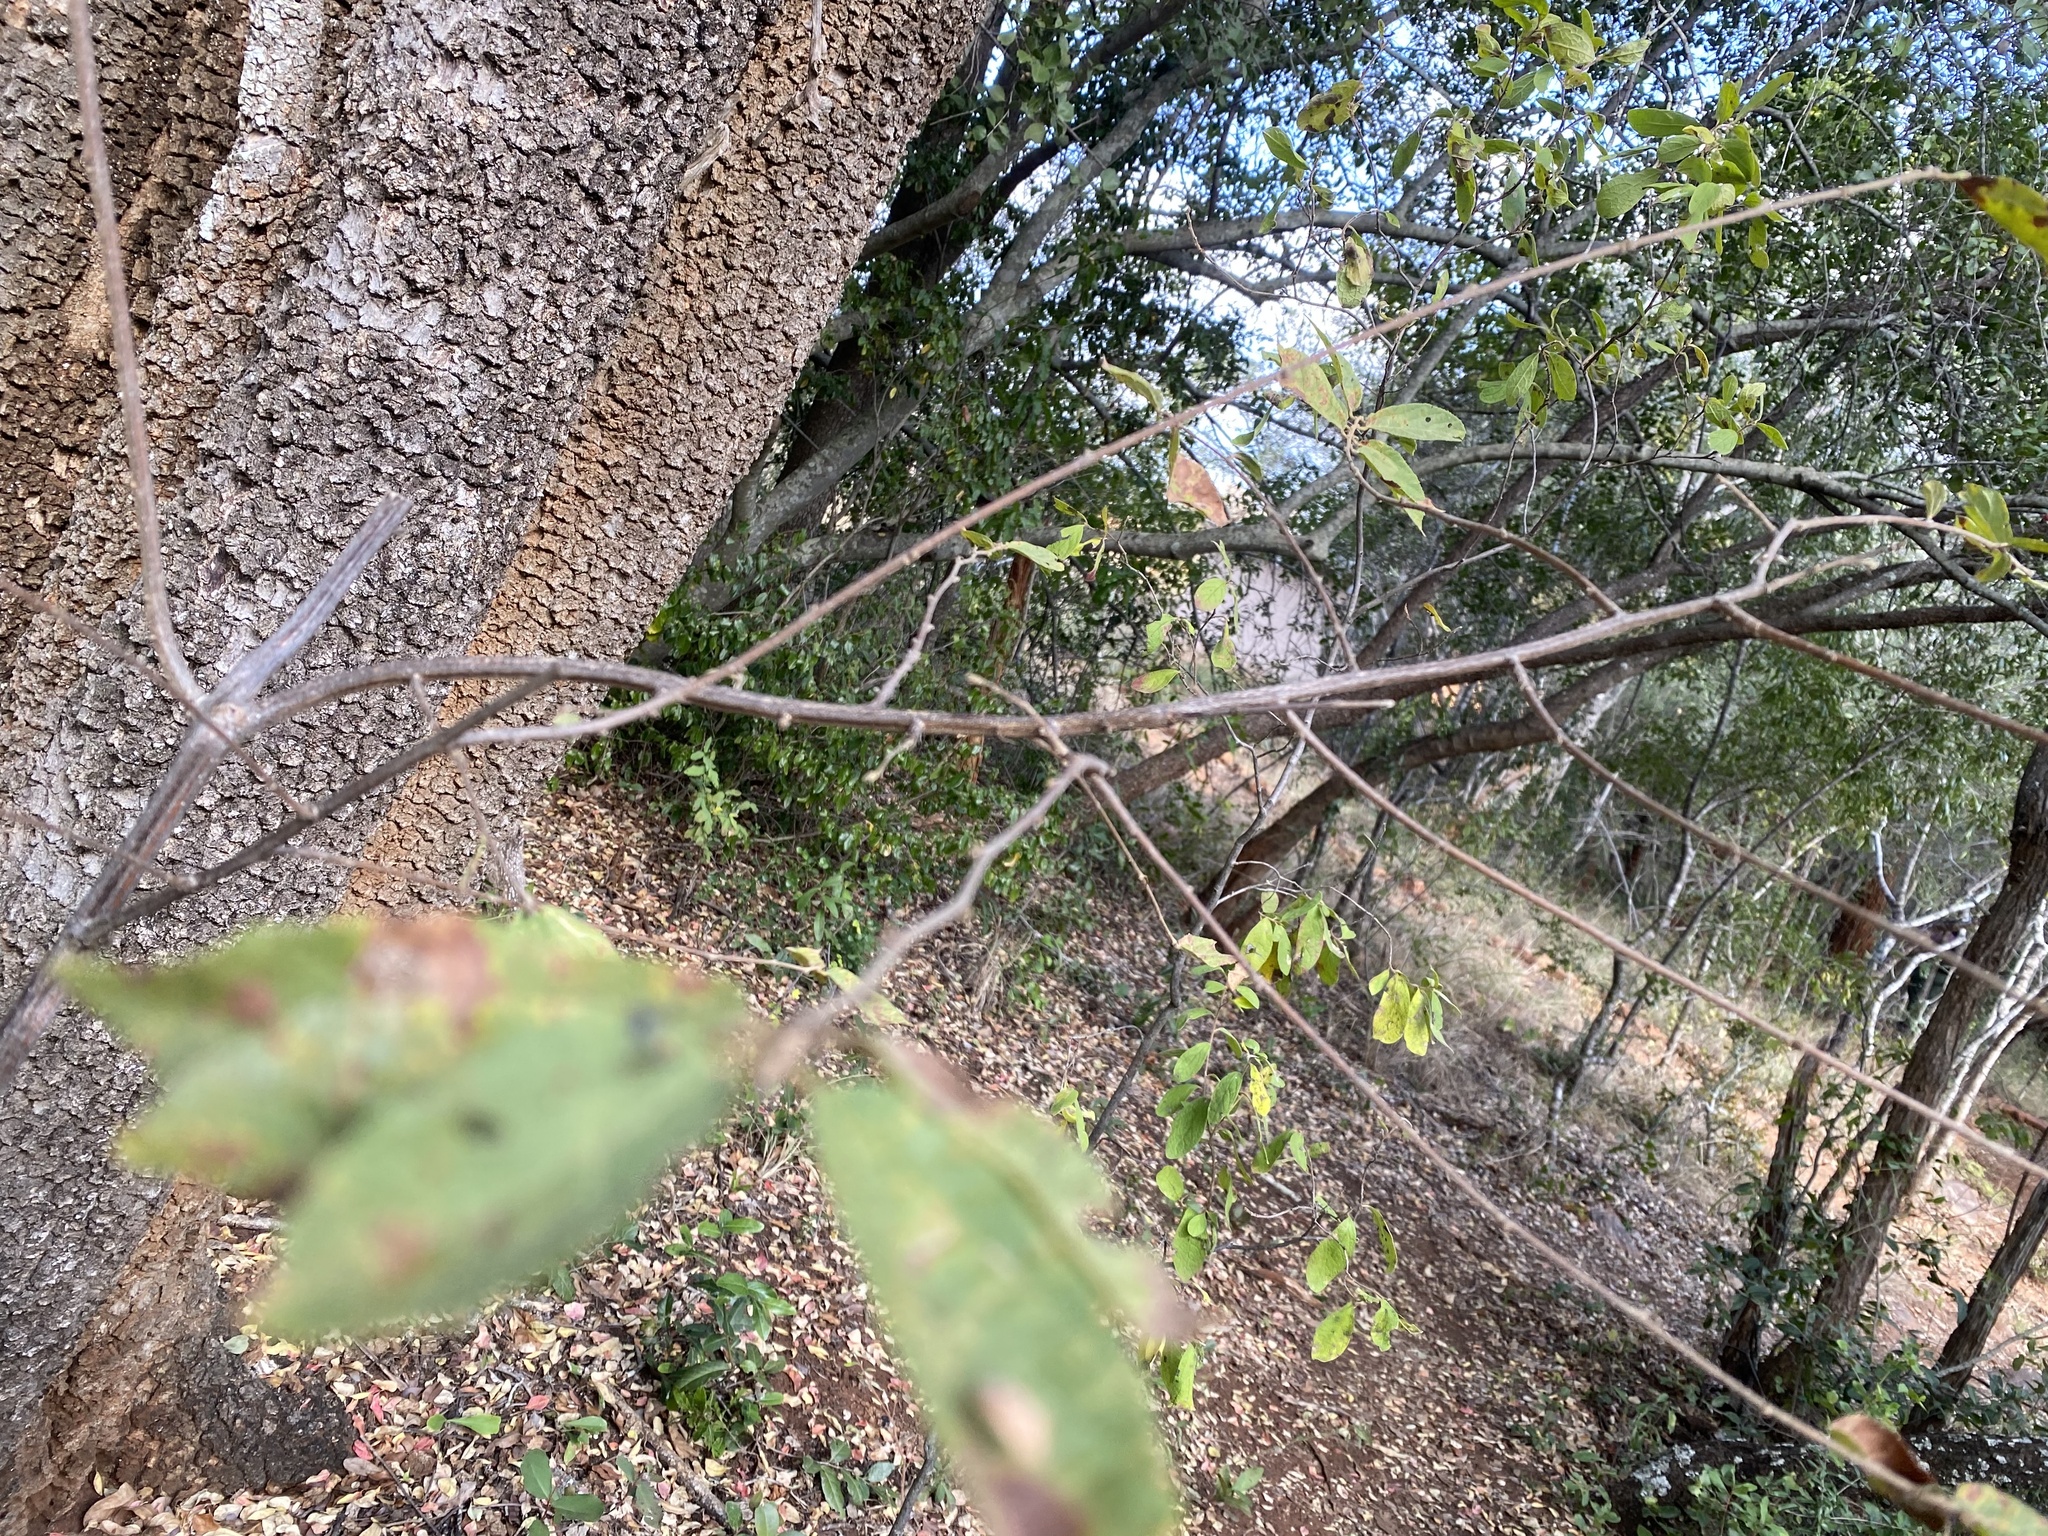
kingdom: Plantae
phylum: Tracheophyta
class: Magnoliopsida
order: Malvales
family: Malvaceae
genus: Grewia
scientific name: Grewia flavescens
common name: Sandpaper raisin
